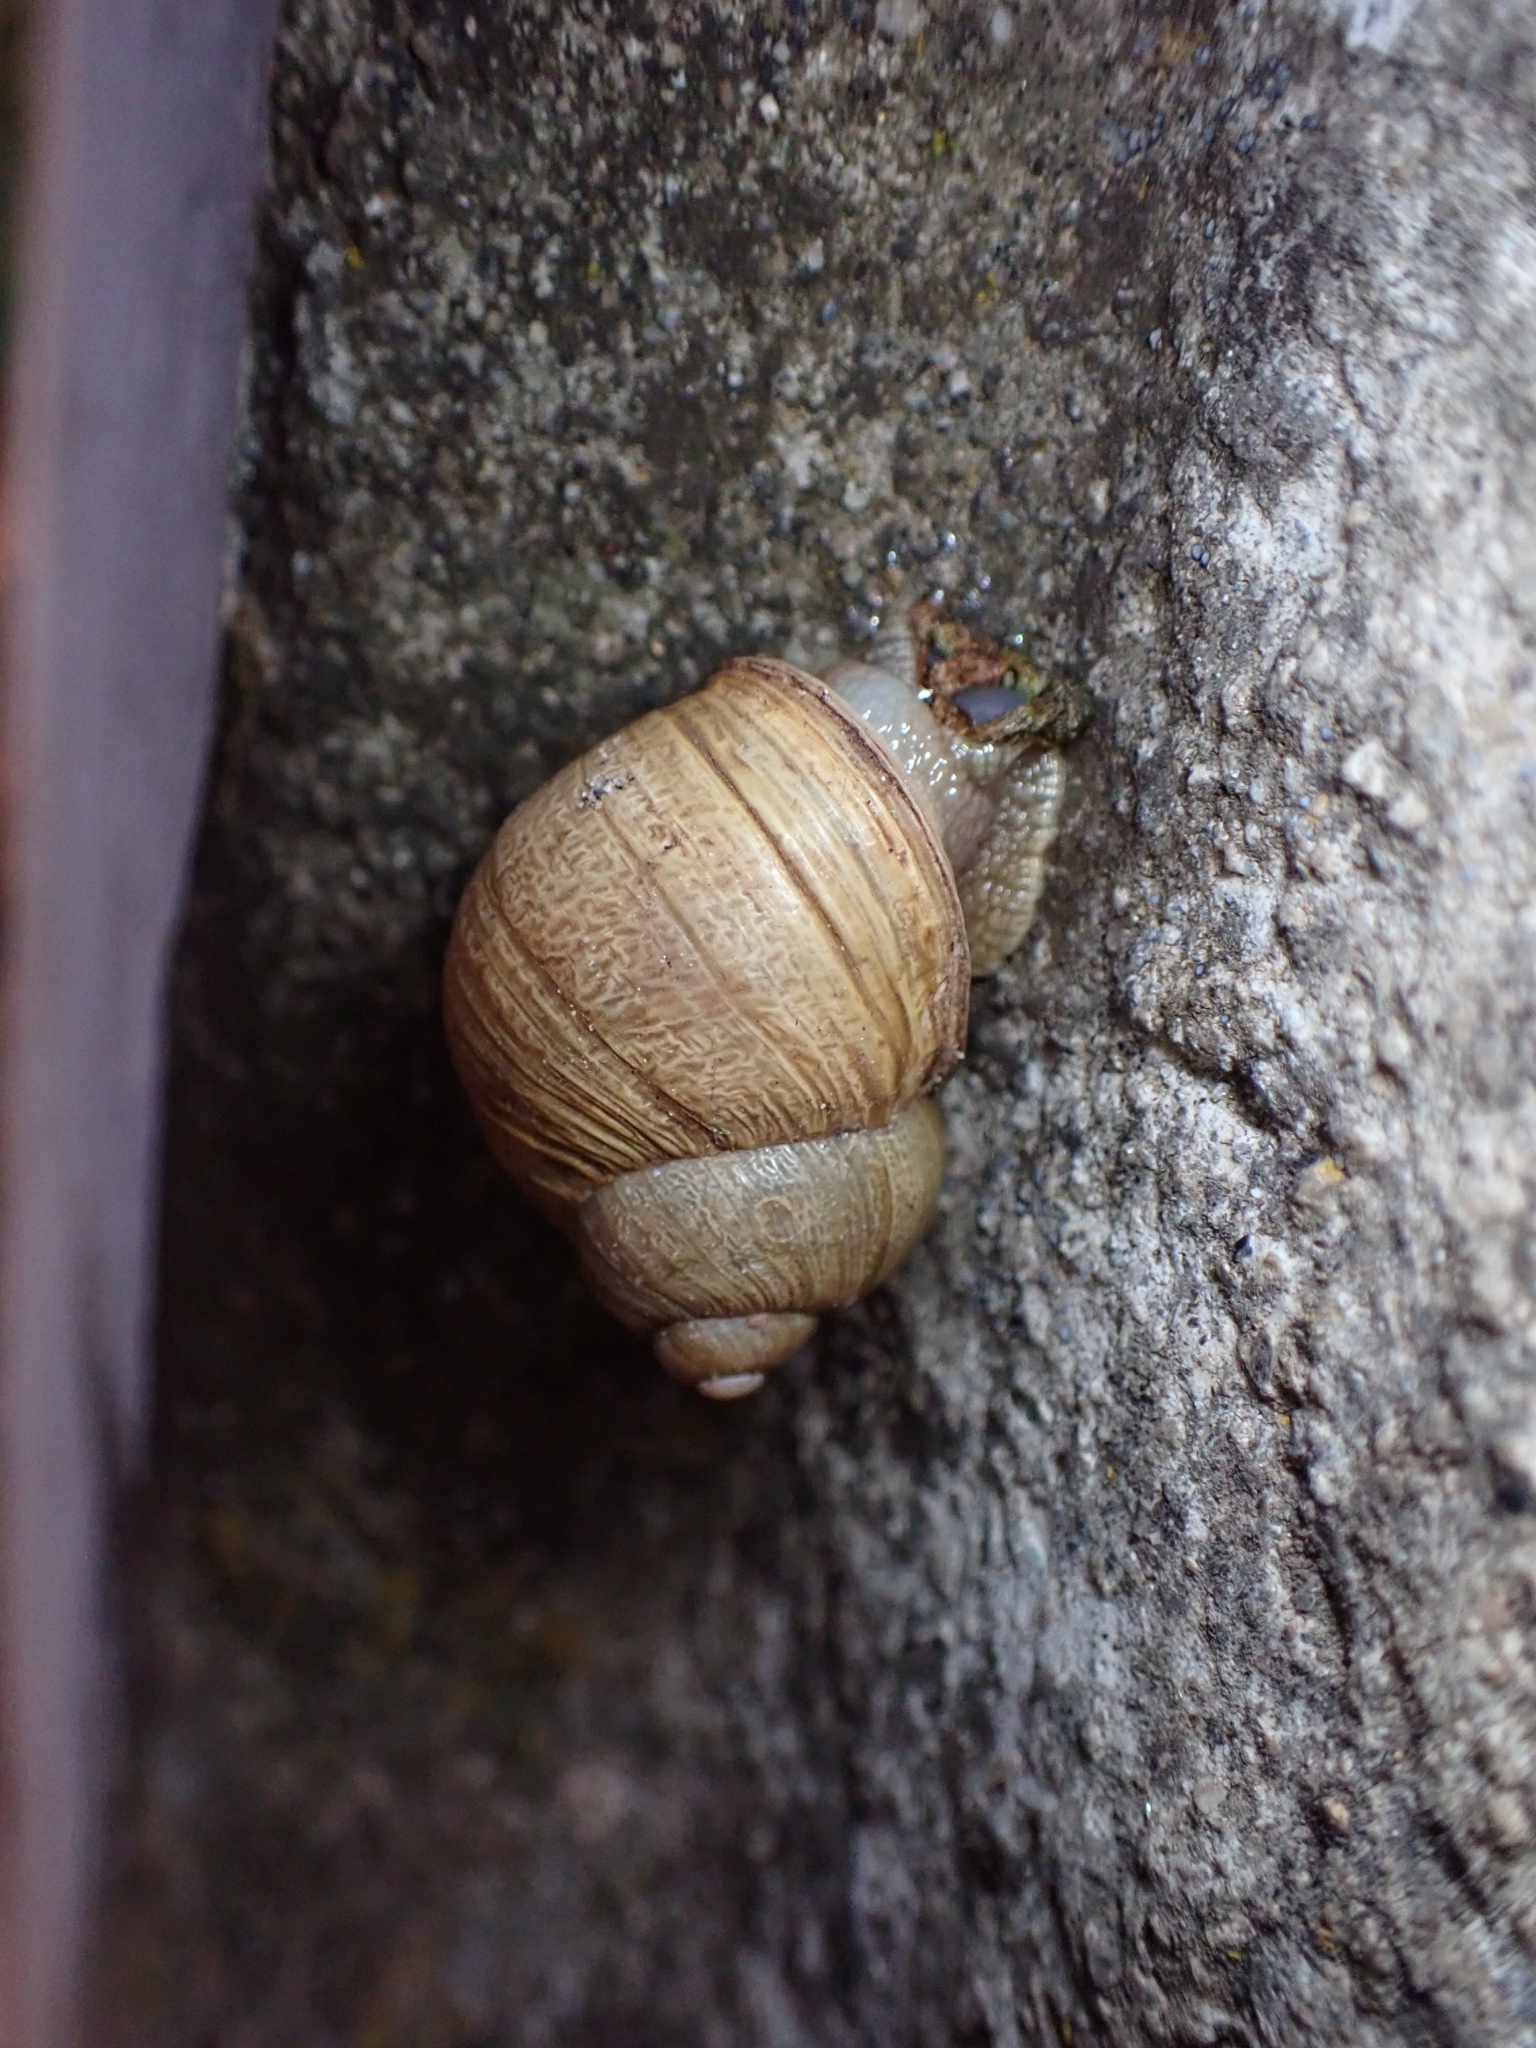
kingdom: Animalia
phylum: Mollusca
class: Gastropoda
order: Stylommatophora
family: Helicidae
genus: Cornu
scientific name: Cornu aspersum
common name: Brown garden snail
